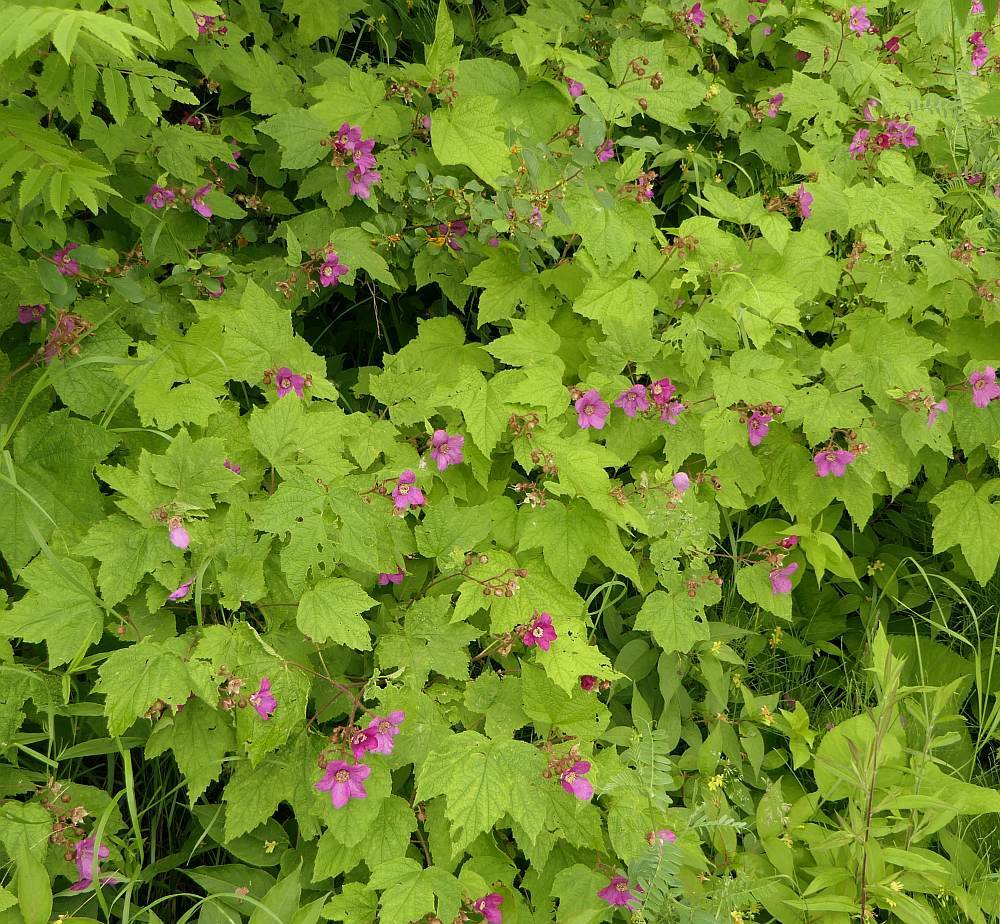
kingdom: Plantae
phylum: Tracheophyta
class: Magnoliopsida
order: Rosales
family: Rosaceae
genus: Rubus
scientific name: Rubus odoratus
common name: Purple-flowered raspberry
